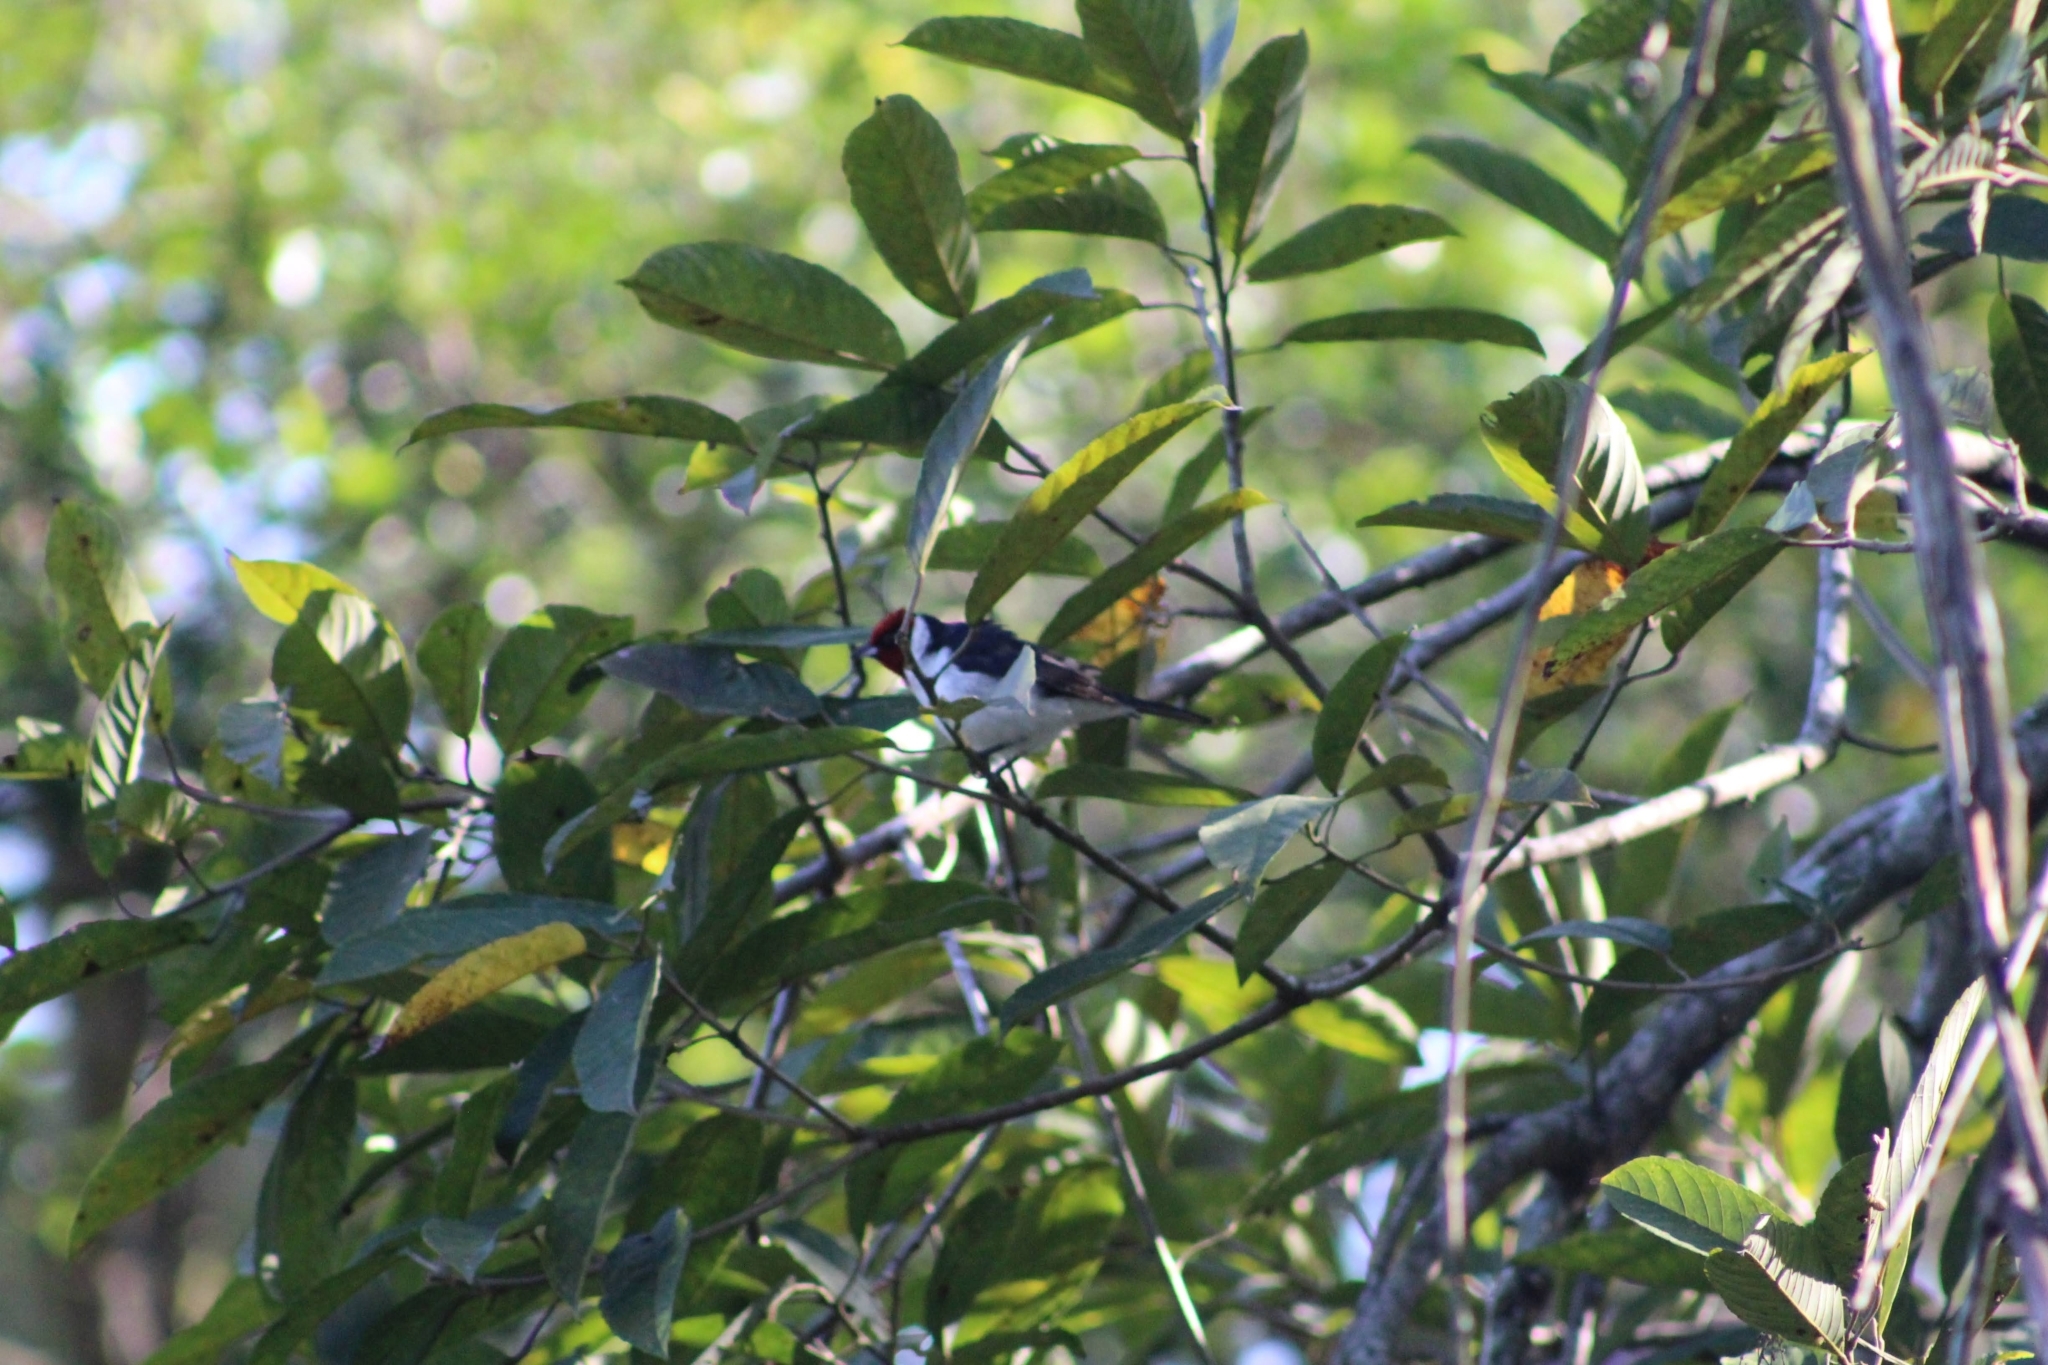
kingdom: Animalia
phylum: Chordata
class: Aves
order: Passeriformes
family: Thraupidae
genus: Paroaria
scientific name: Paroaria nigrogenis
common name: Masked cardinal
